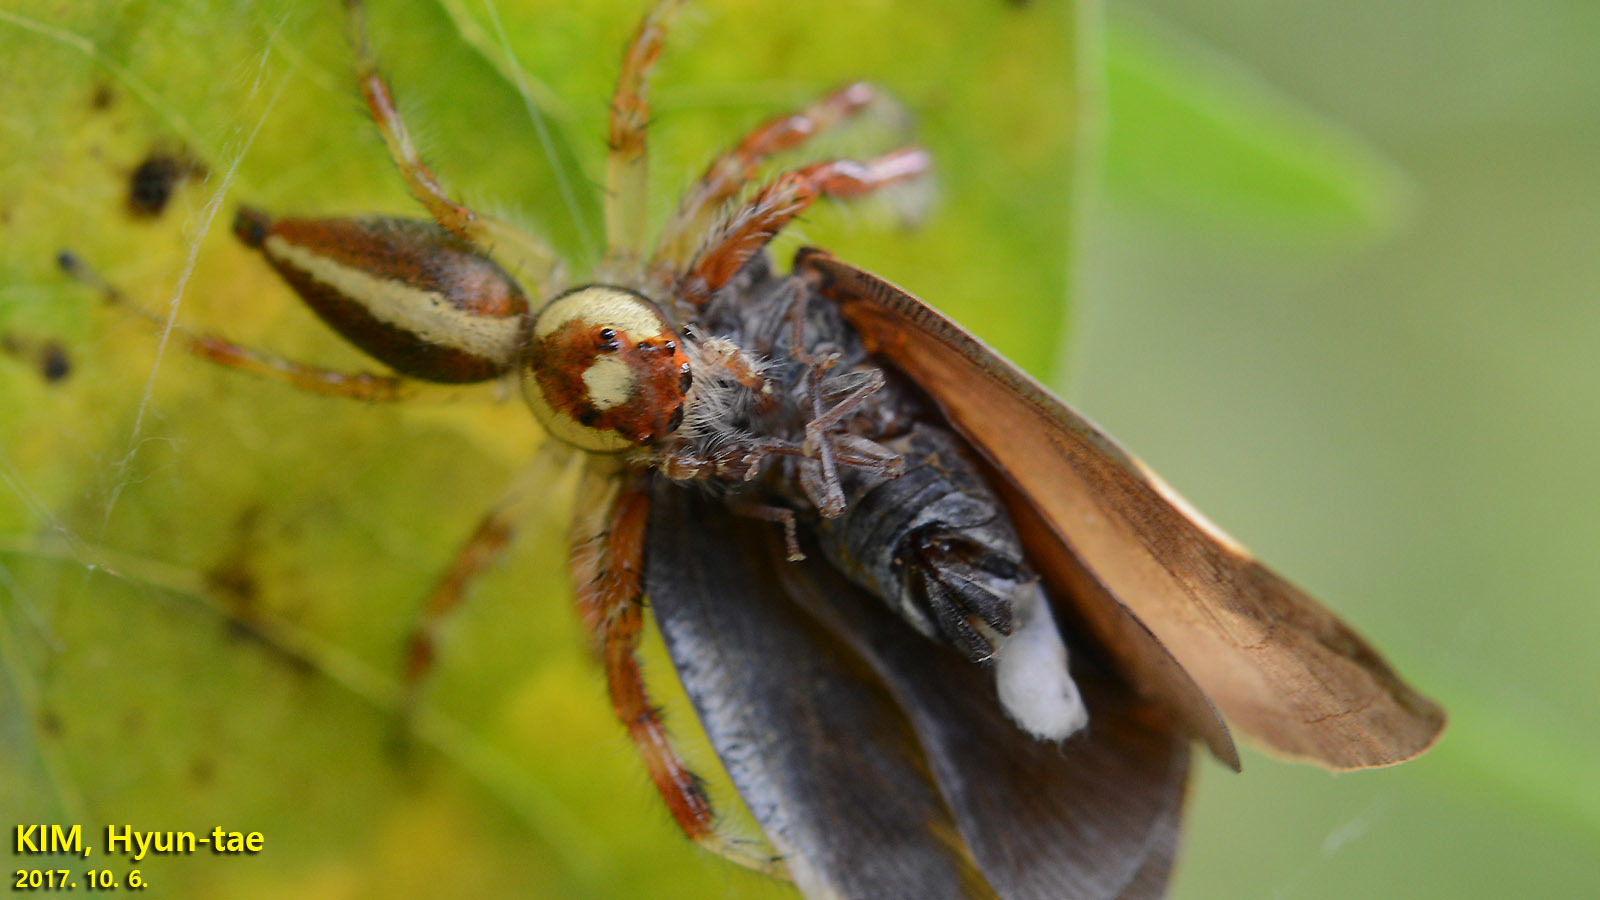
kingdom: Animalia
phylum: Arthropoda
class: Arachnida
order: Araneae
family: Salticidae
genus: Telamonia
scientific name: Telamonia vlijmi
